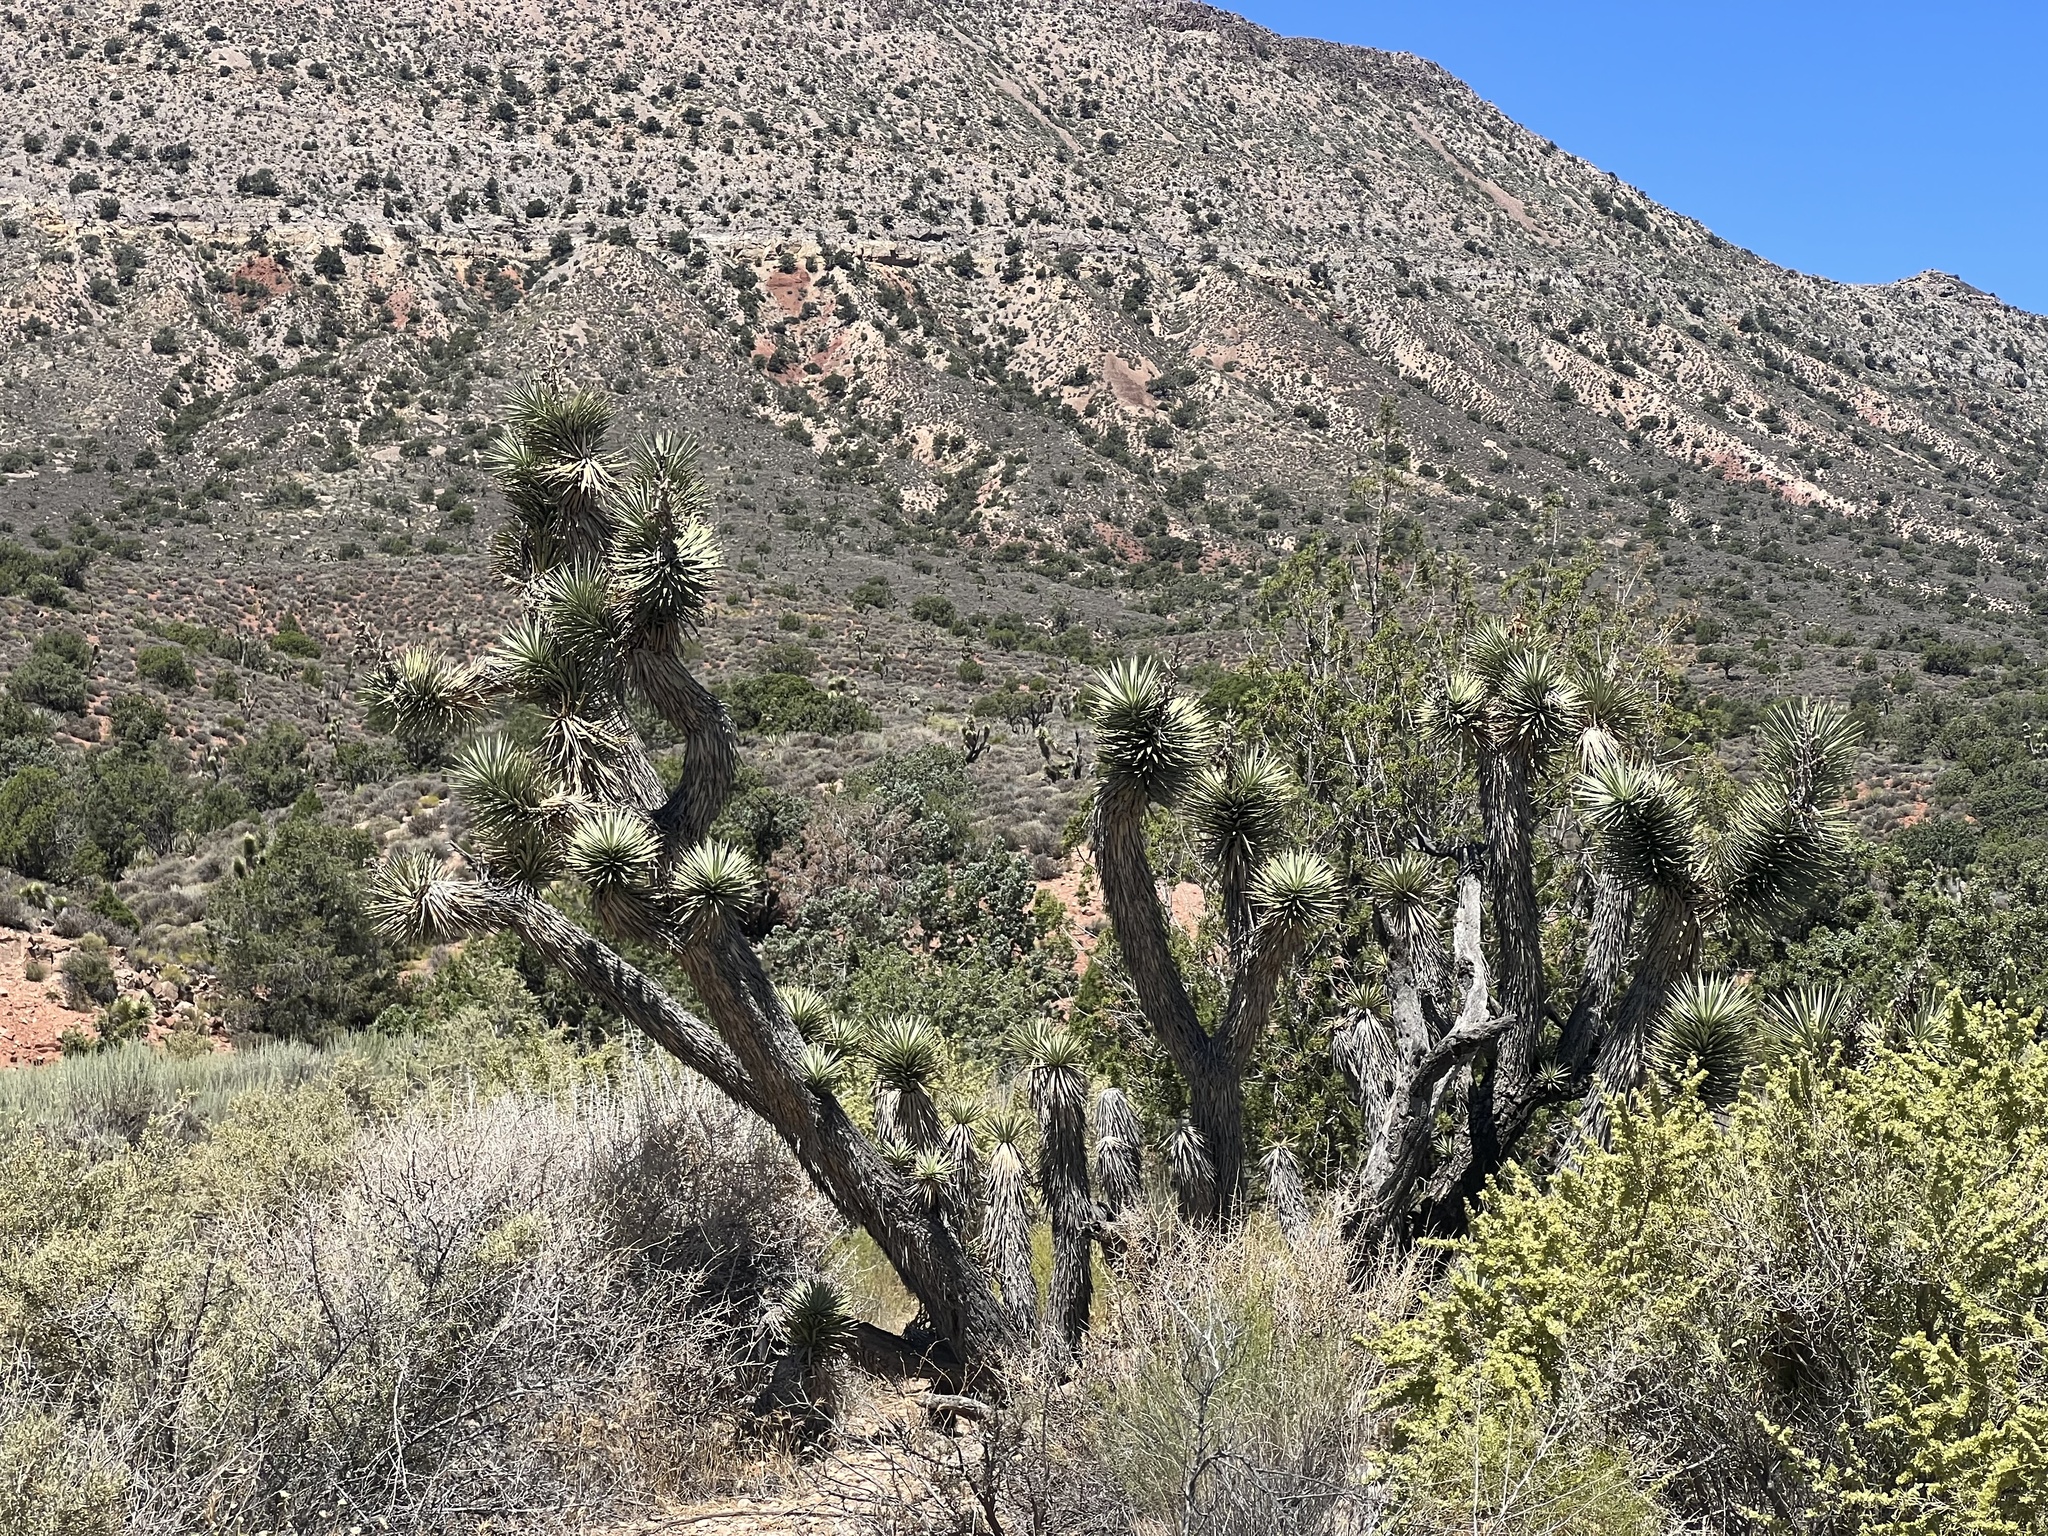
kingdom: Plantae
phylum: Tracheophyta
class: Liliopsida
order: Asparagales
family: Asparagaceae
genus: Yucca
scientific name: Yucca brevifolia
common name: Joshua tree
